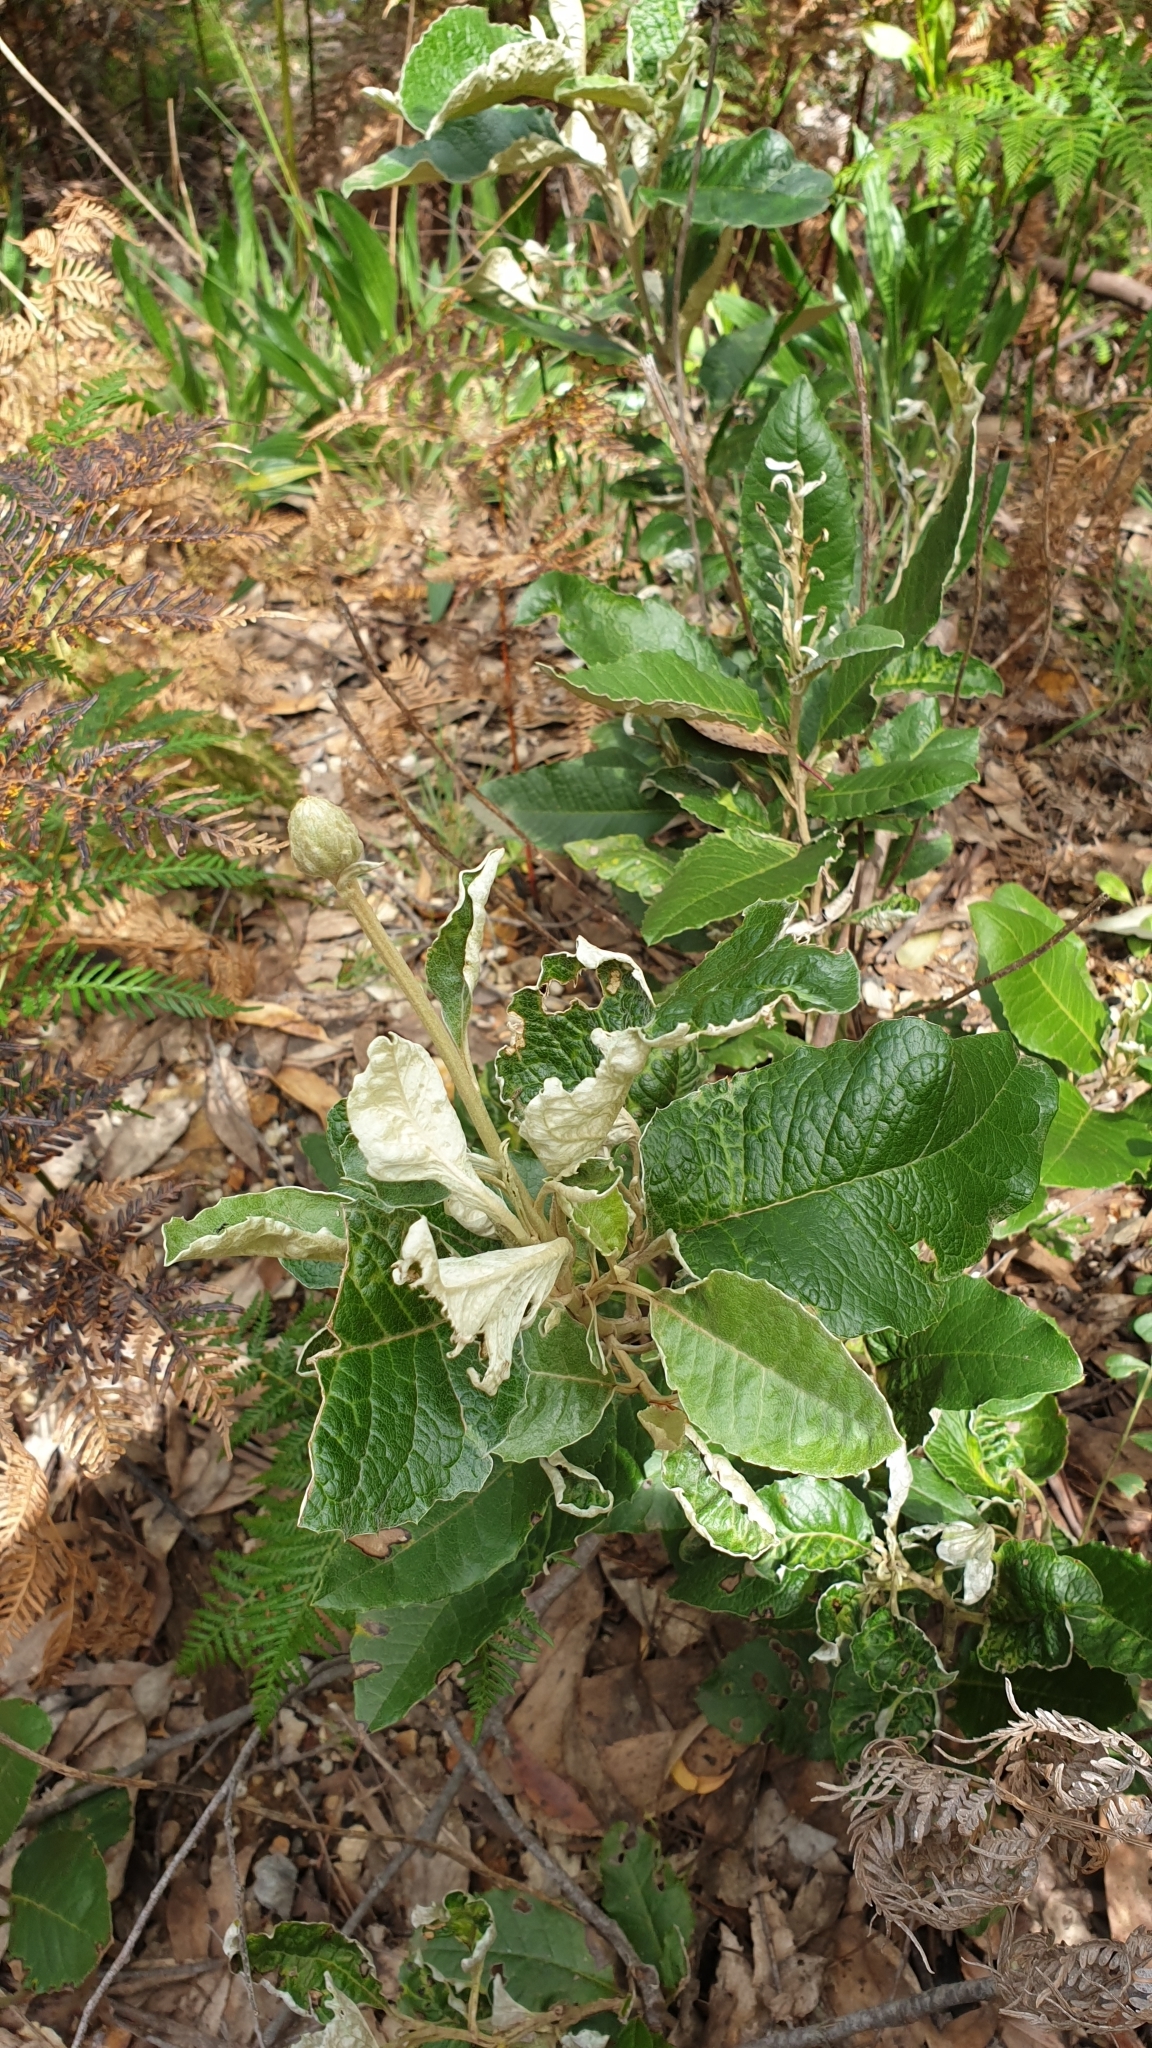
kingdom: Plantae
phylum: Tracheophyta
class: Magnoliopsida
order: Asterales
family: Asteraceae
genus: Olearia
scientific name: Olearia grandiflora
